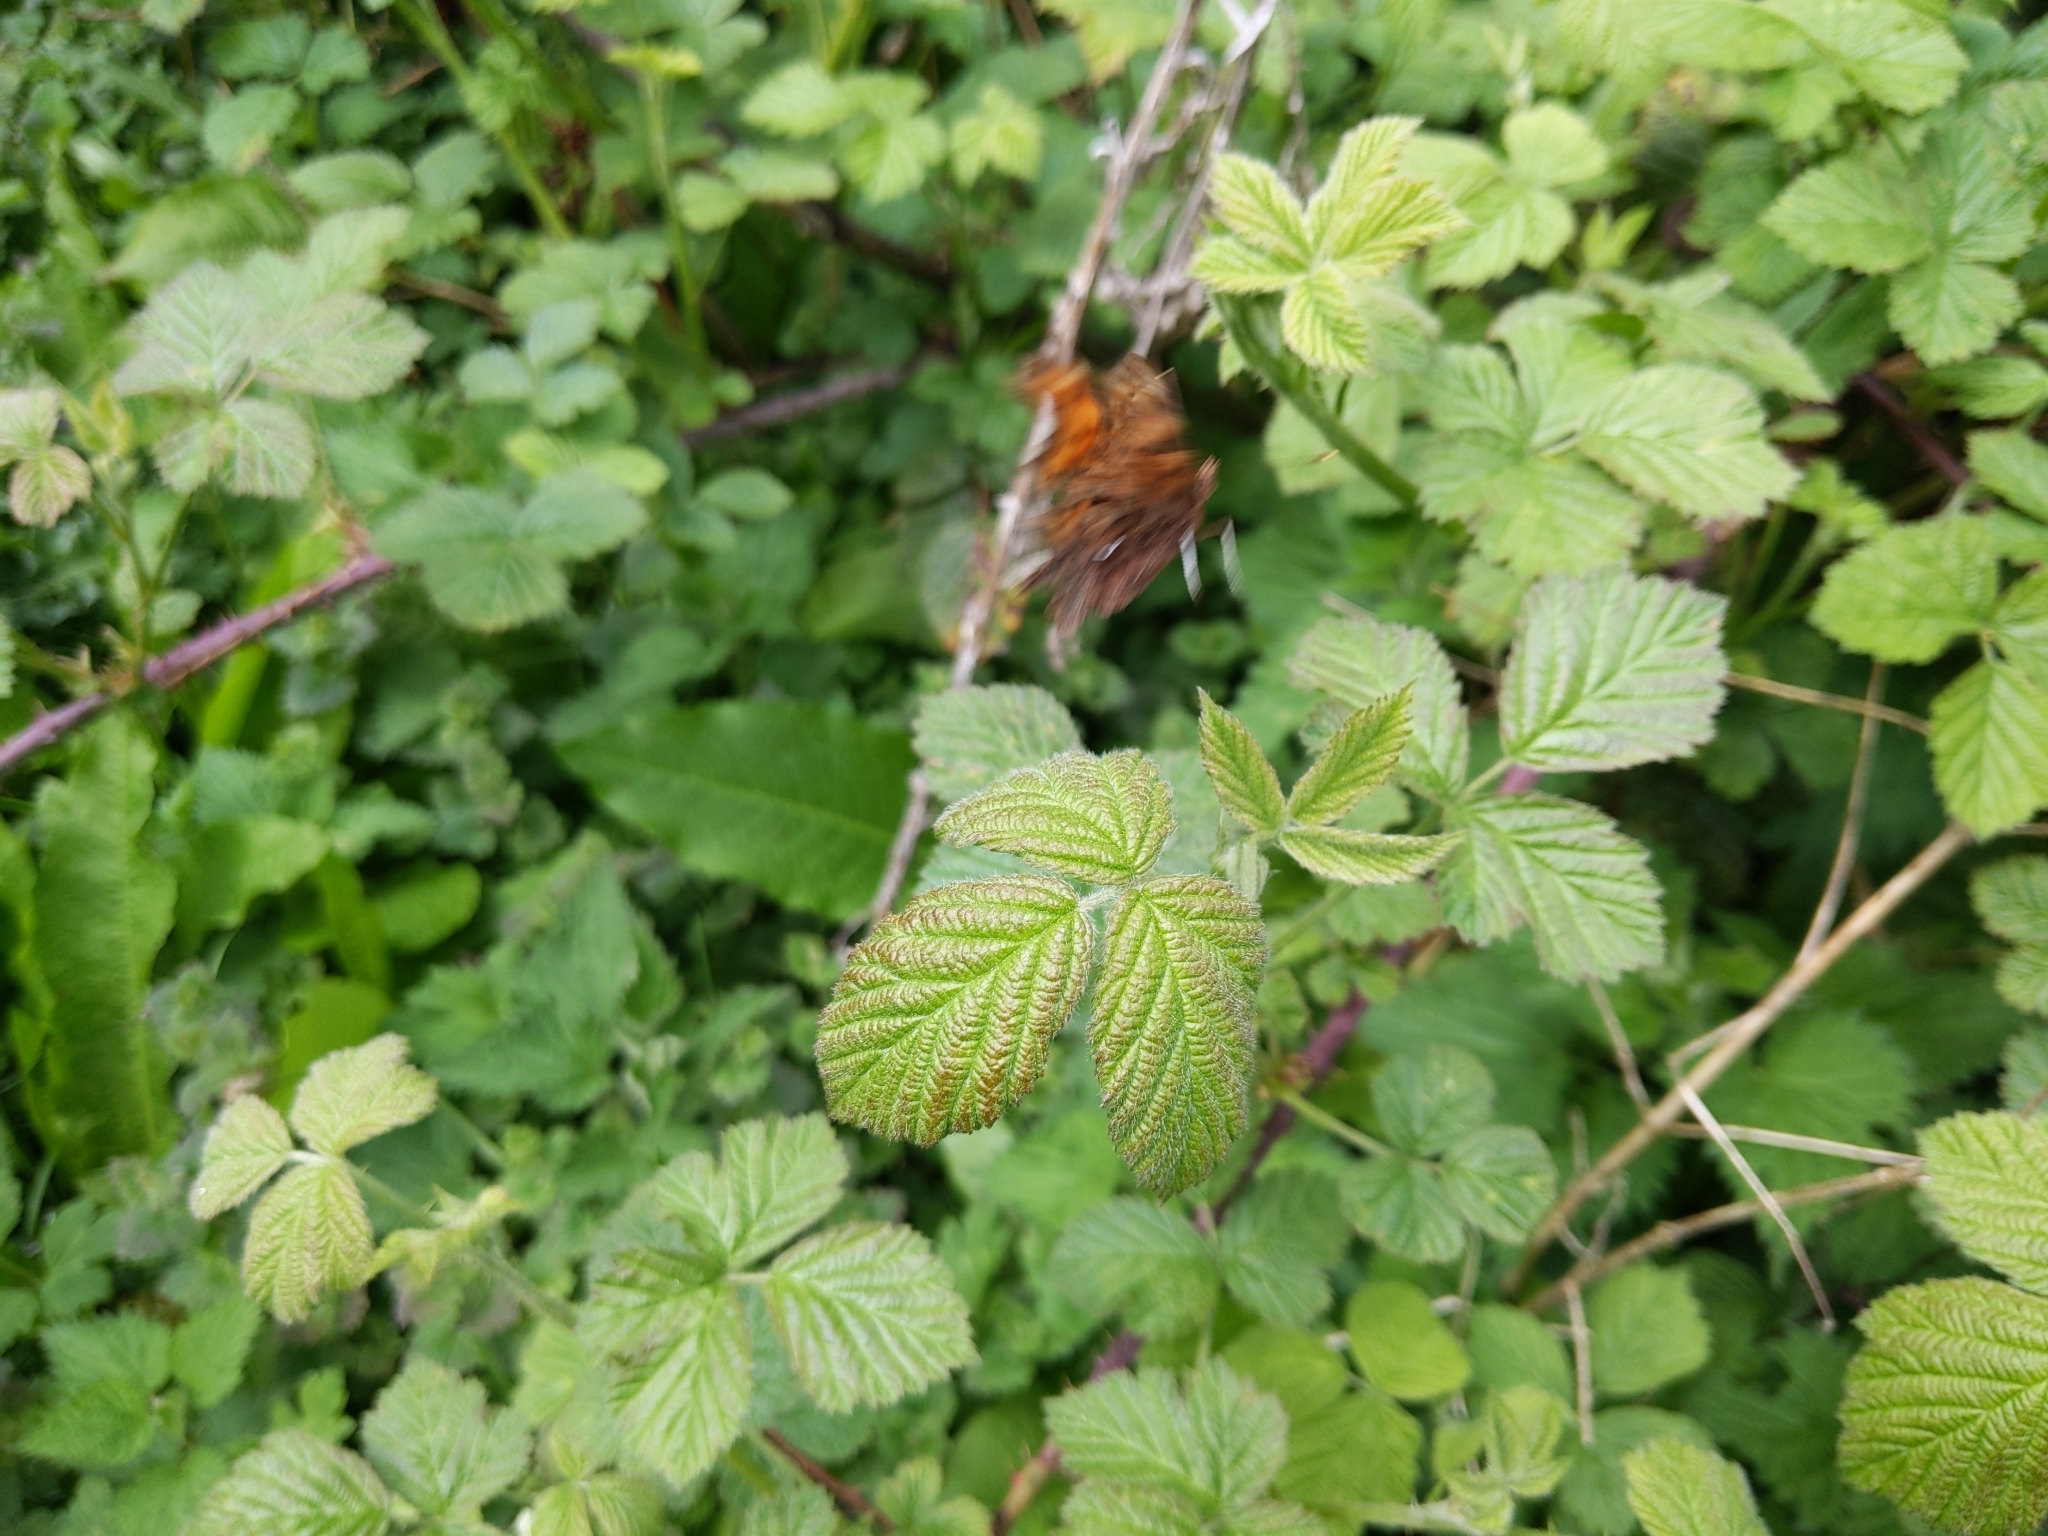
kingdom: Animalia
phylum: Arthropoda
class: Insecta
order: Lepidoptera
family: Nymphalidae
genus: Polygonia
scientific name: Polygonia c-album
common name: Comma
